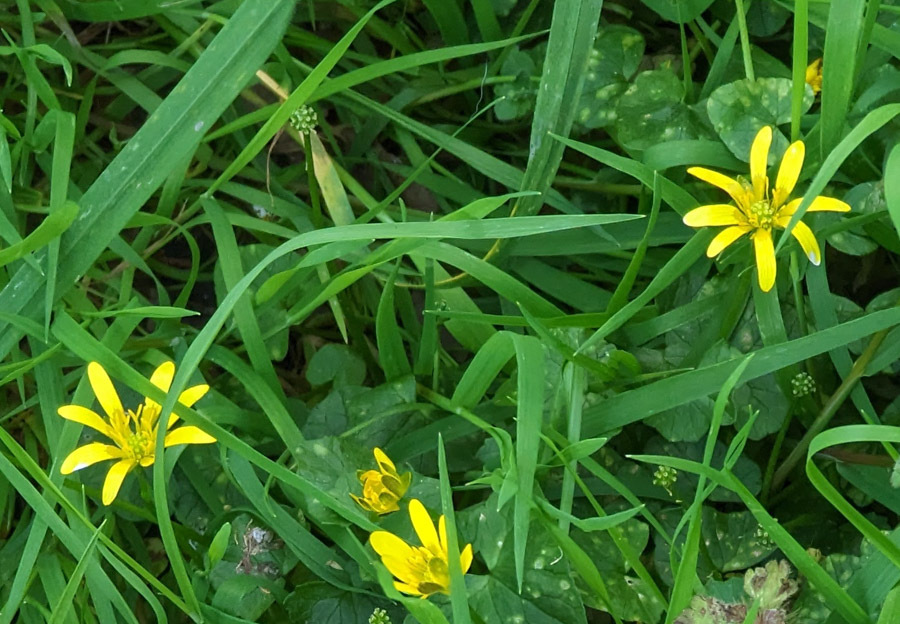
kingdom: Plantae
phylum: Tracheophyta
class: Magnoliopsida
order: Ranunculales
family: Ranunculaceae
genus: Ficaria
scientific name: Ficaria verna
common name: Lesser celandine
